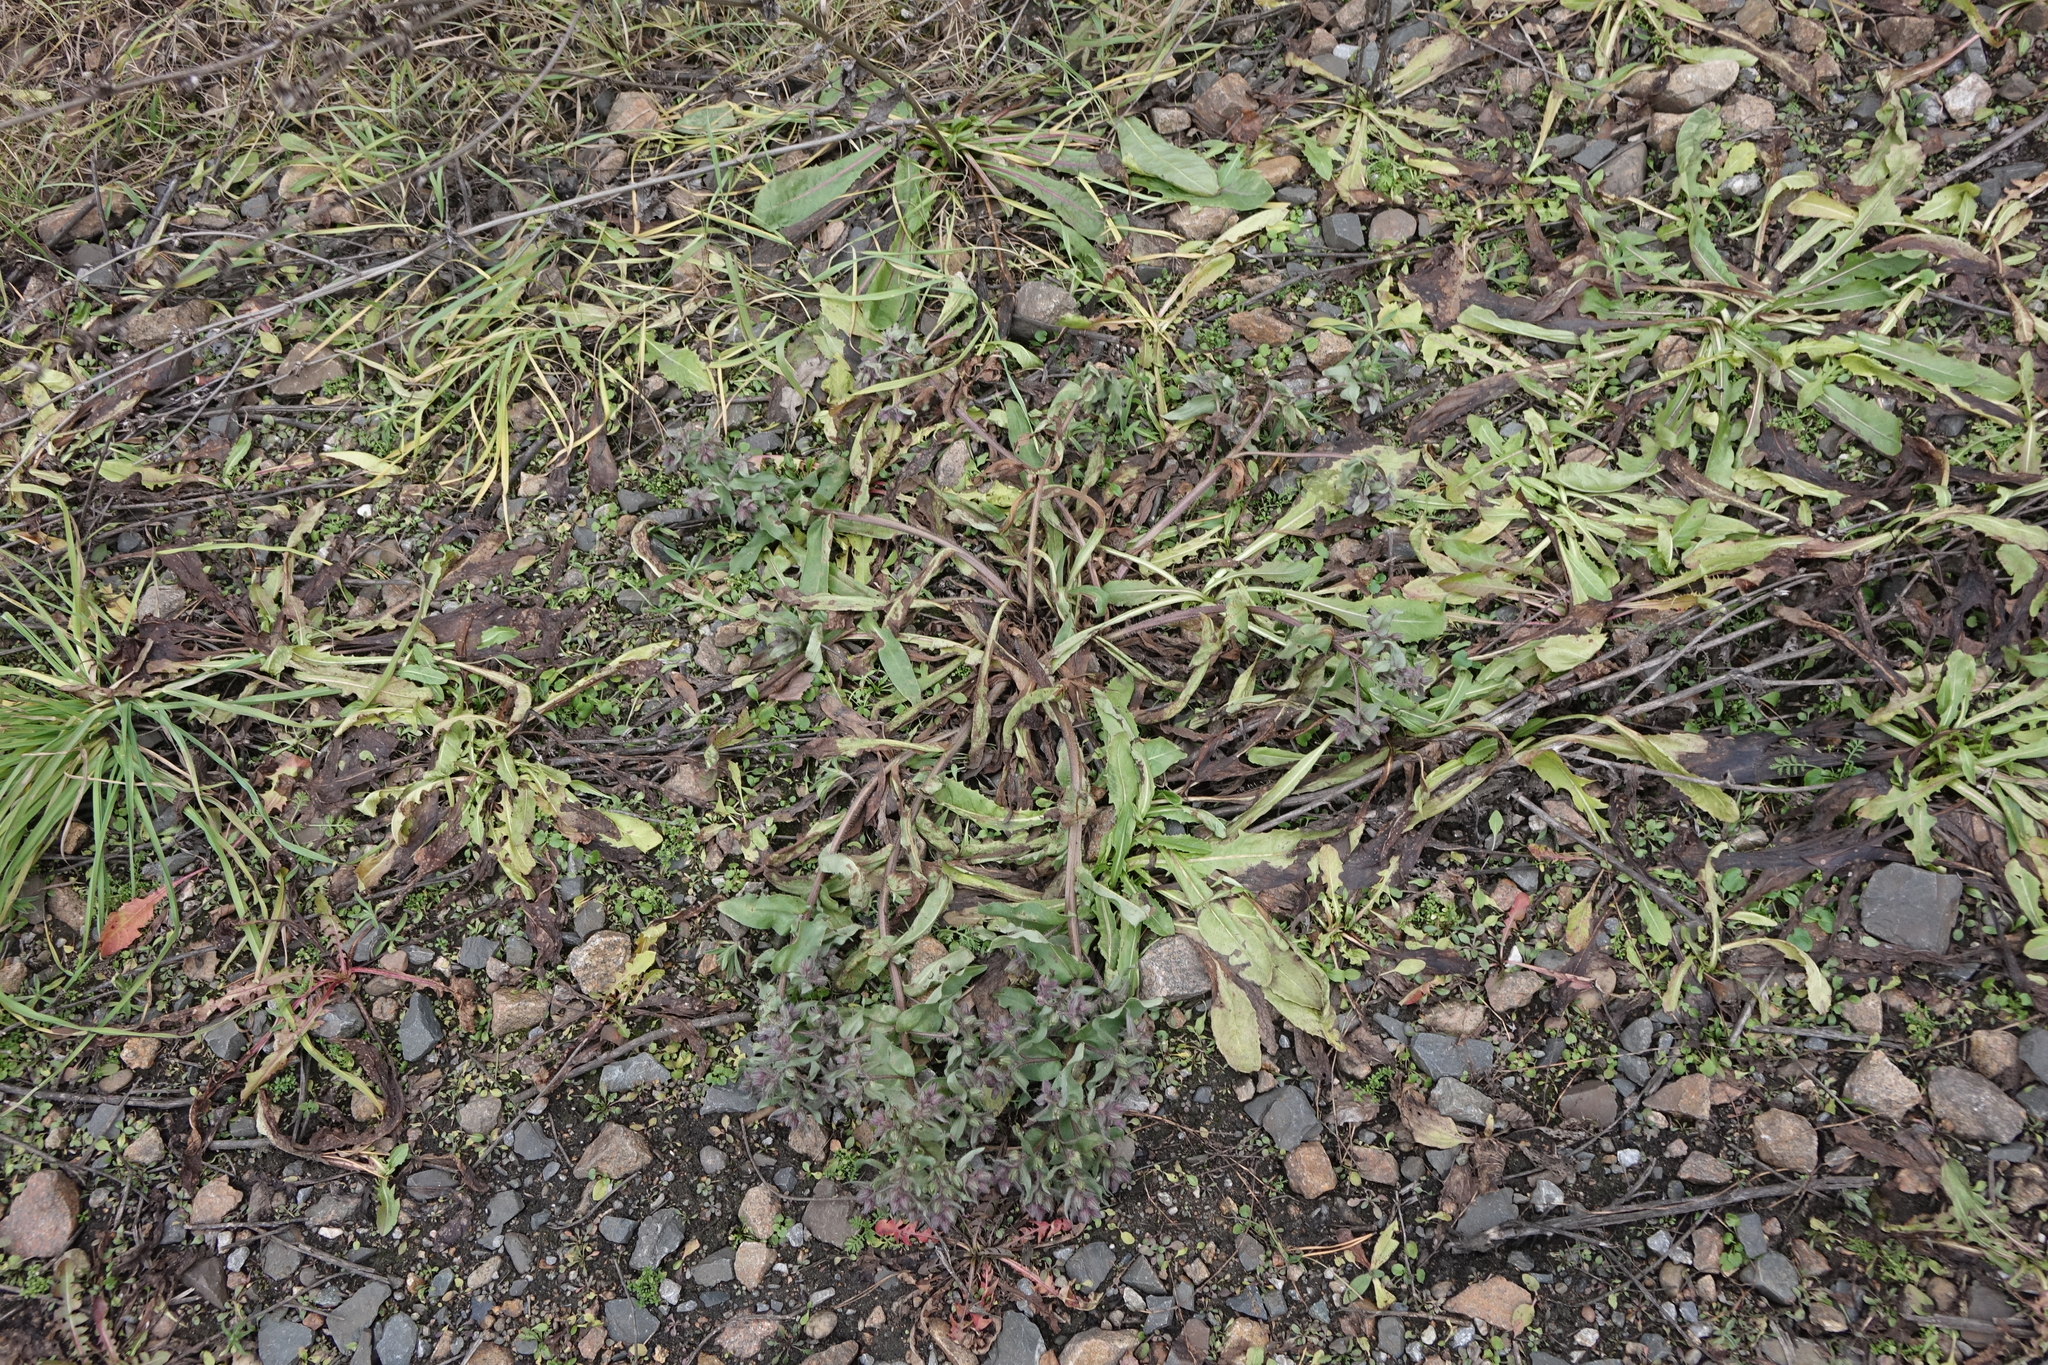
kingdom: Plantae
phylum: Tracheophyta
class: Magnoliopsida
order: Boraginales
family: Boraginaceae
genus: Nonea
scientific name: Nonea pulla
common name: Brown nonea
